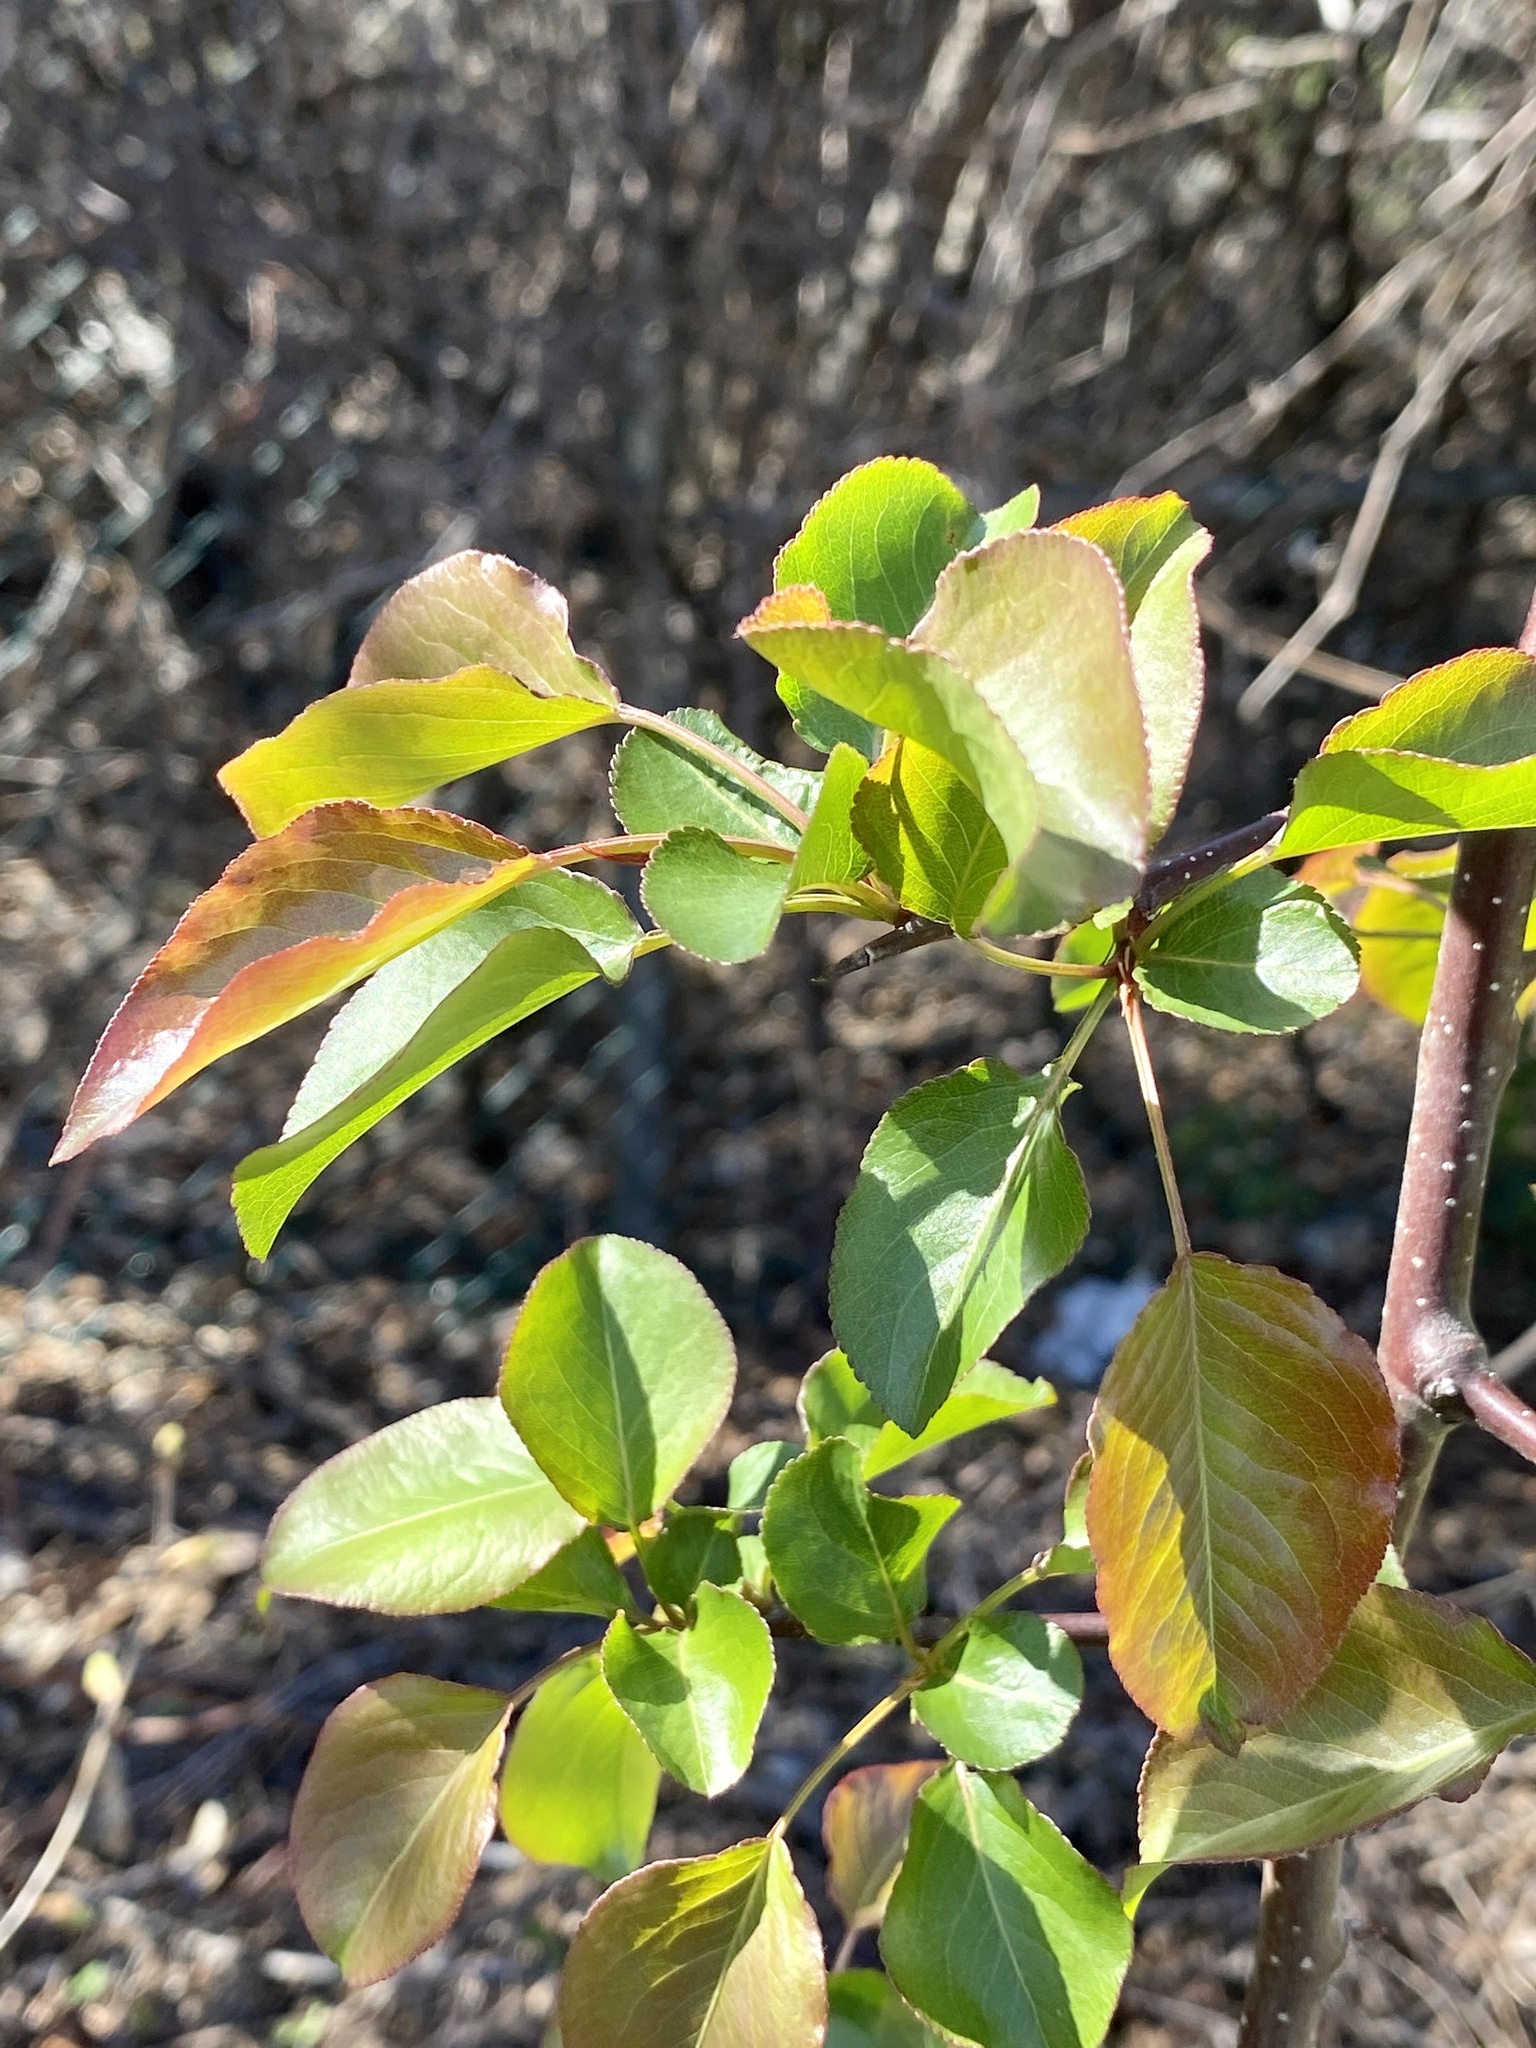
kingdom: Plantae
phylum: Tracheophyta
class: Magnoliopsida
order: Rosales
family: Rosaceae
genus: Pyrus
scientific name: Pyrus calleryana
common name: Callery pear
